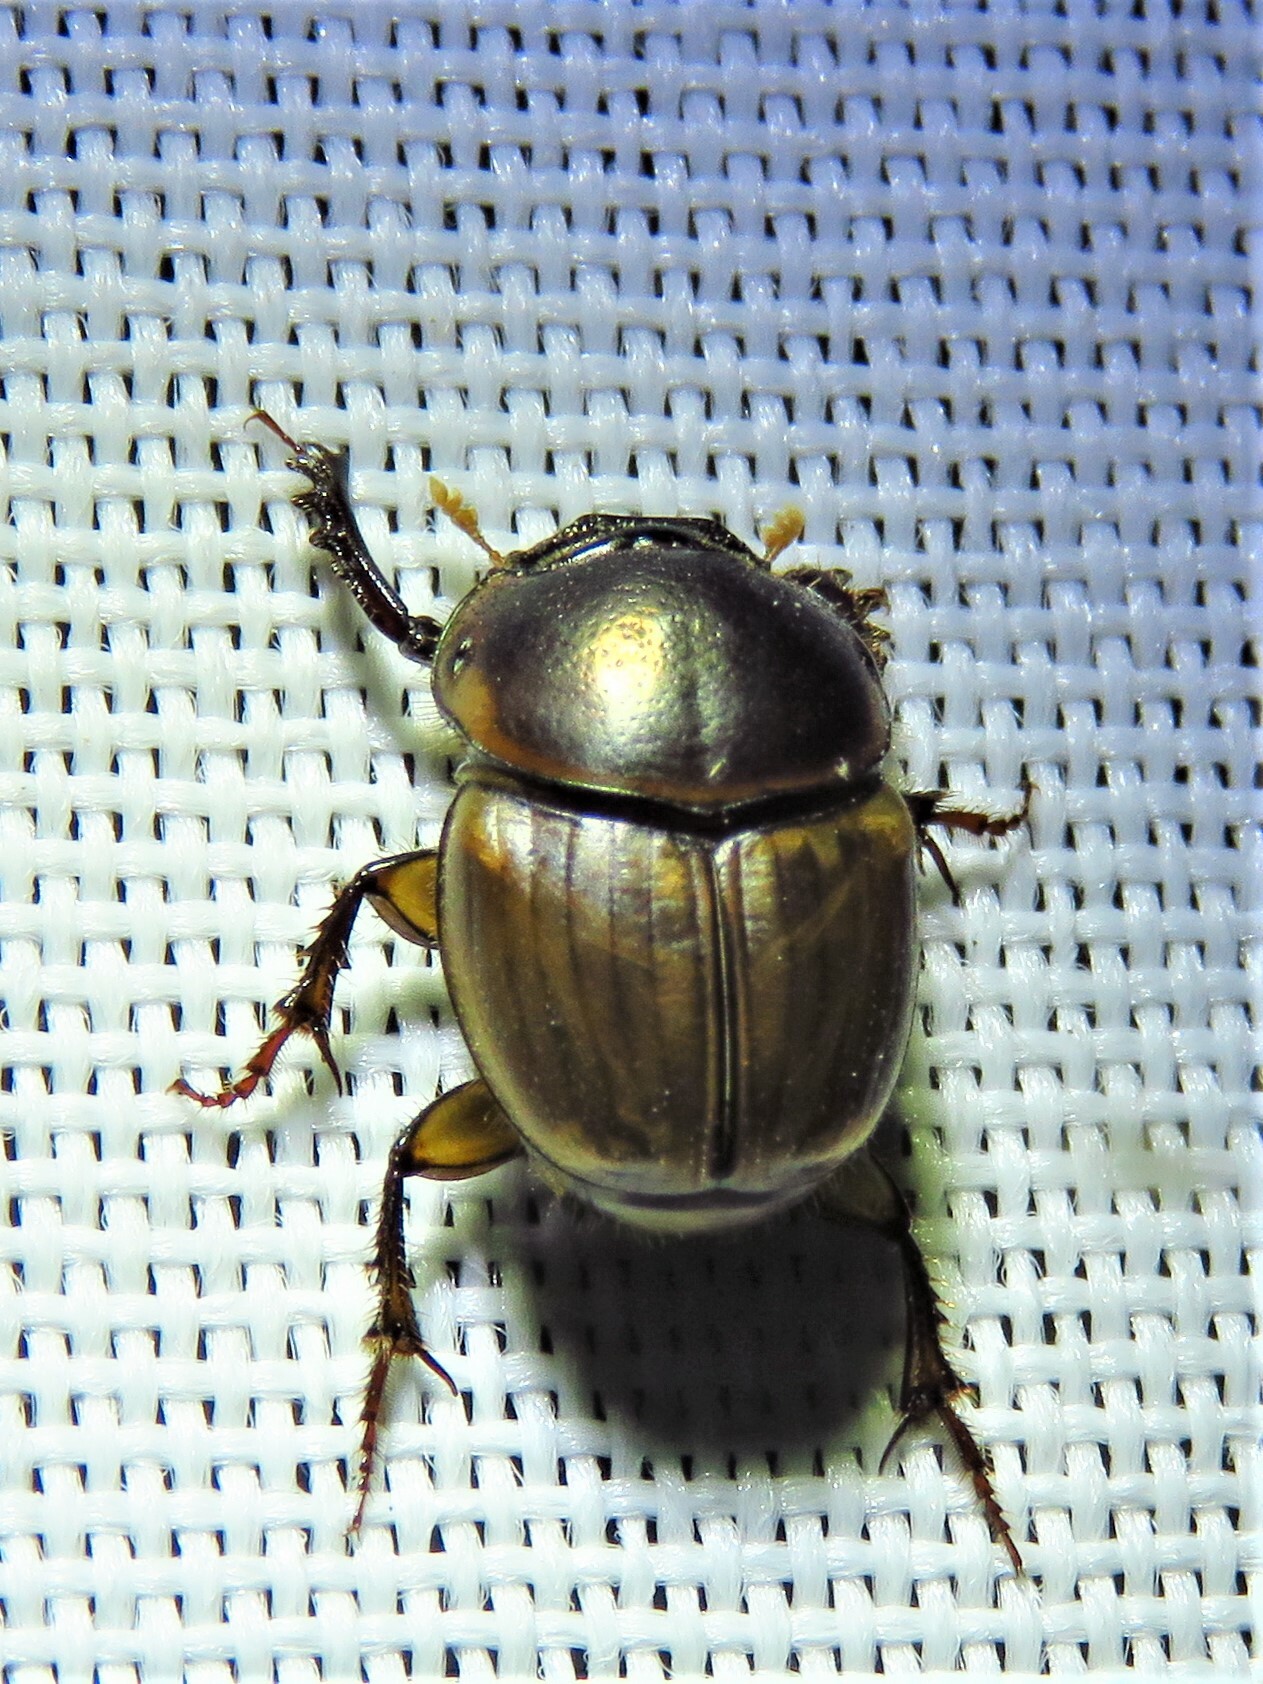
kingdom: Animalia
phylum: Arthropoda
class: Insecta
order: Coleoptera
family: Scarabaeidae
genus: Digitonthophagus
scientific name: Digitonthophagus gazella
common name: Brown dung beetle
